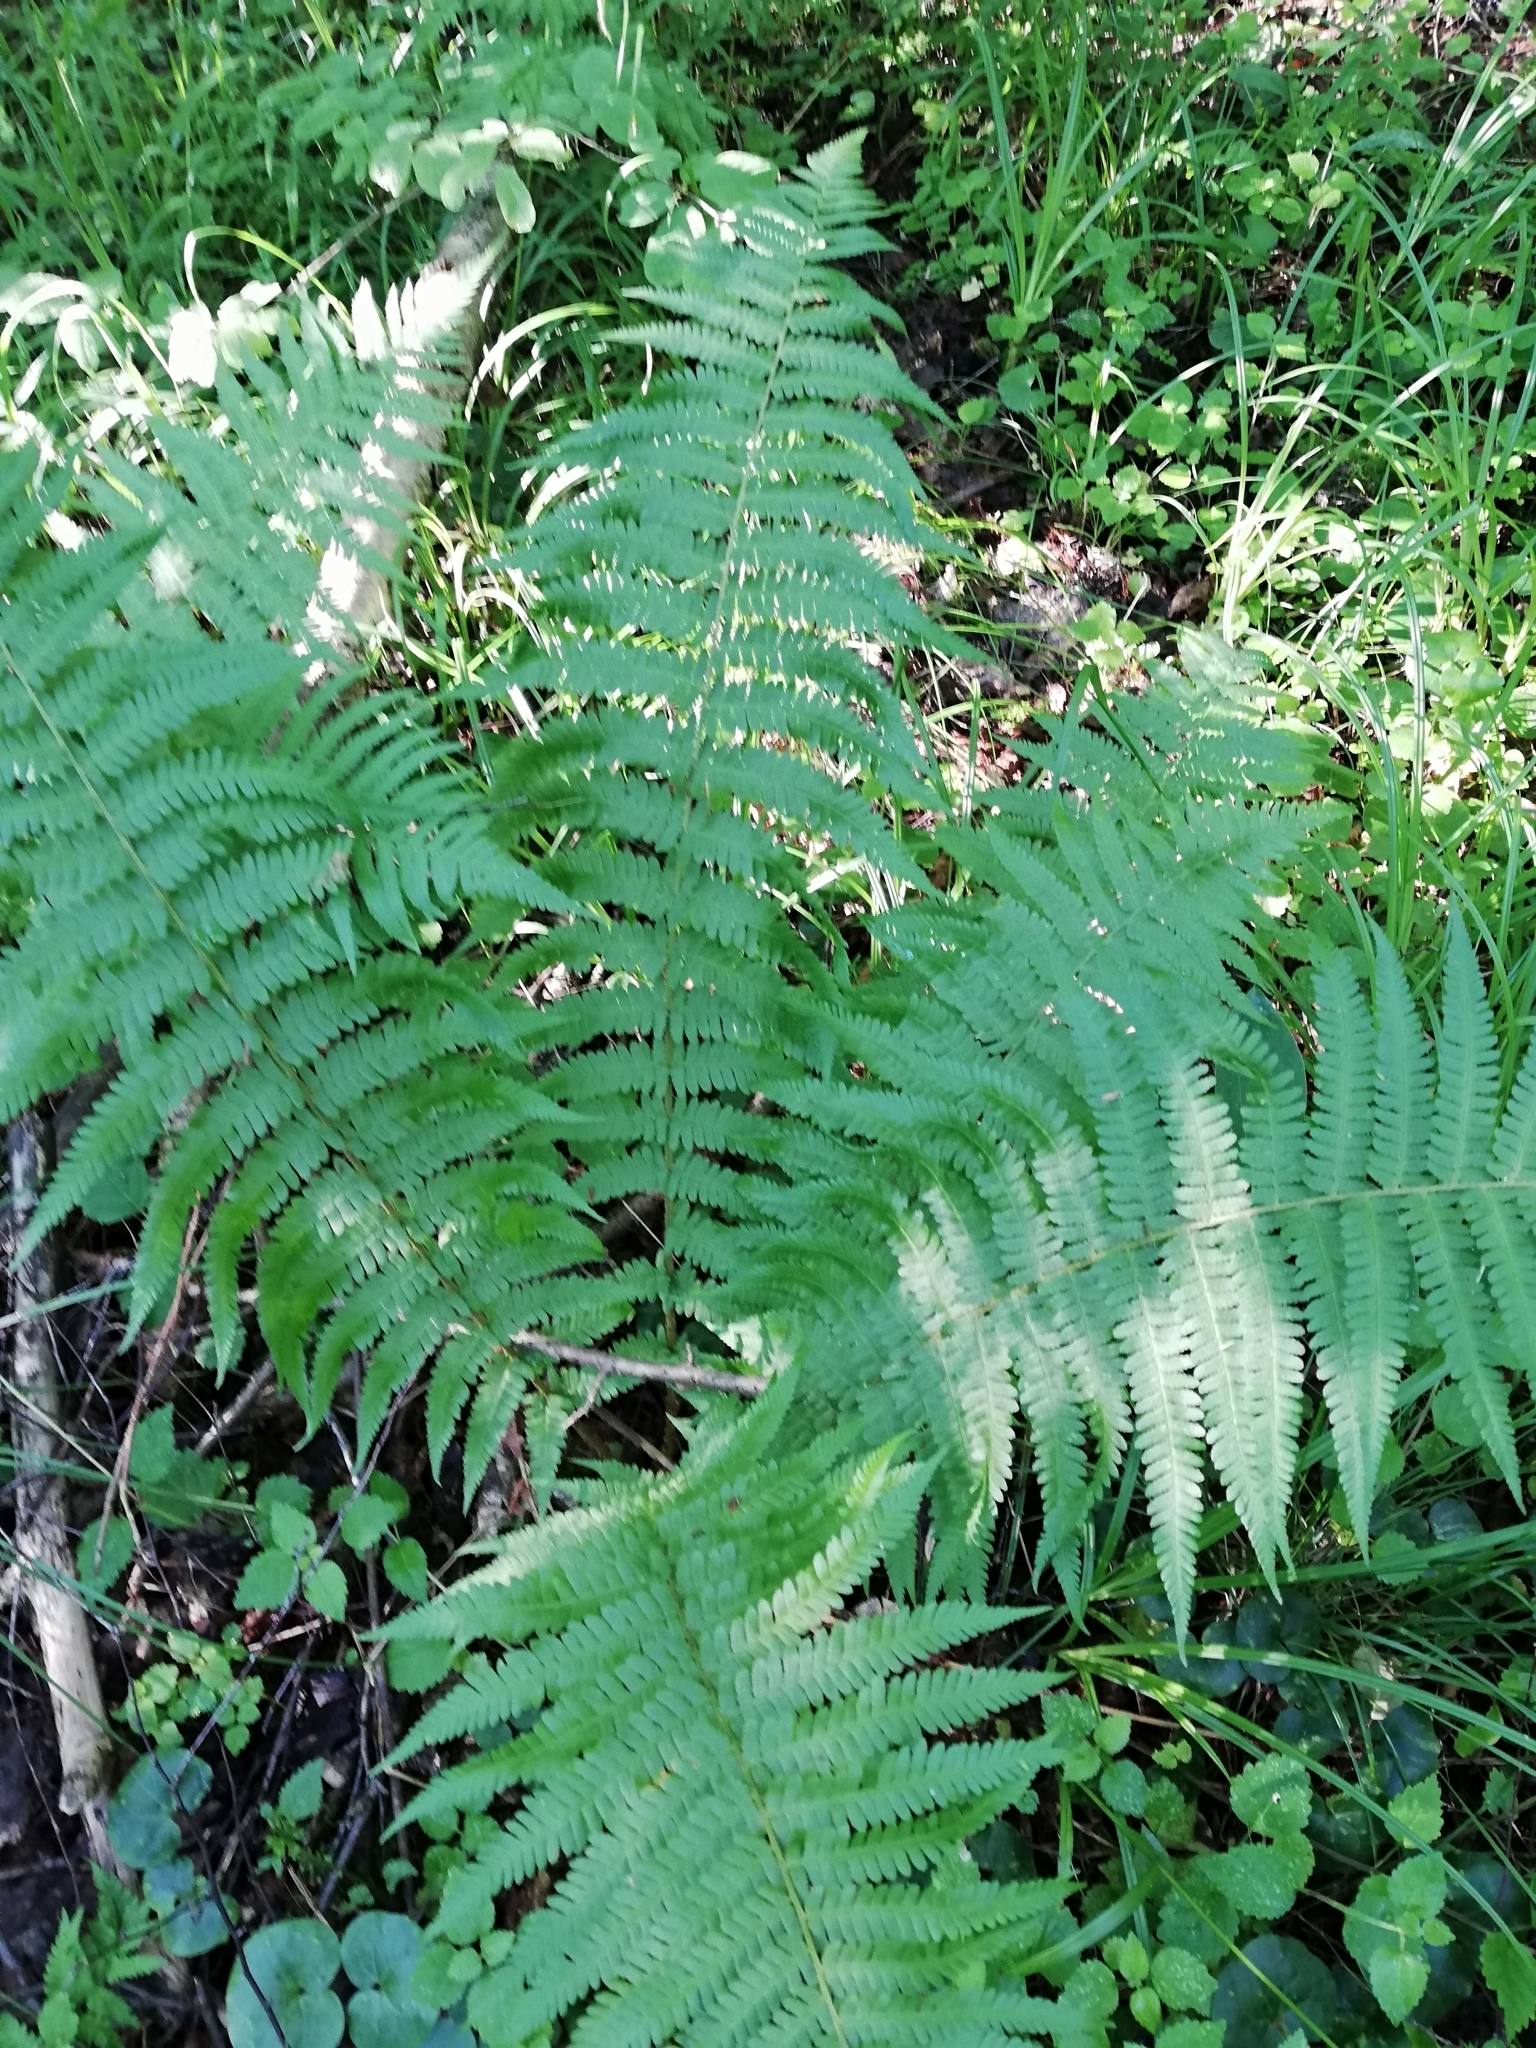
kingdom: Plantae
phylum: Tracheophyta
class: Polypodiopsida
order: Polypodiales
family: Dryopteridaceae
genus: Dryopteris
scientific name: Dryopteris filix-mas
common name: Male fern
